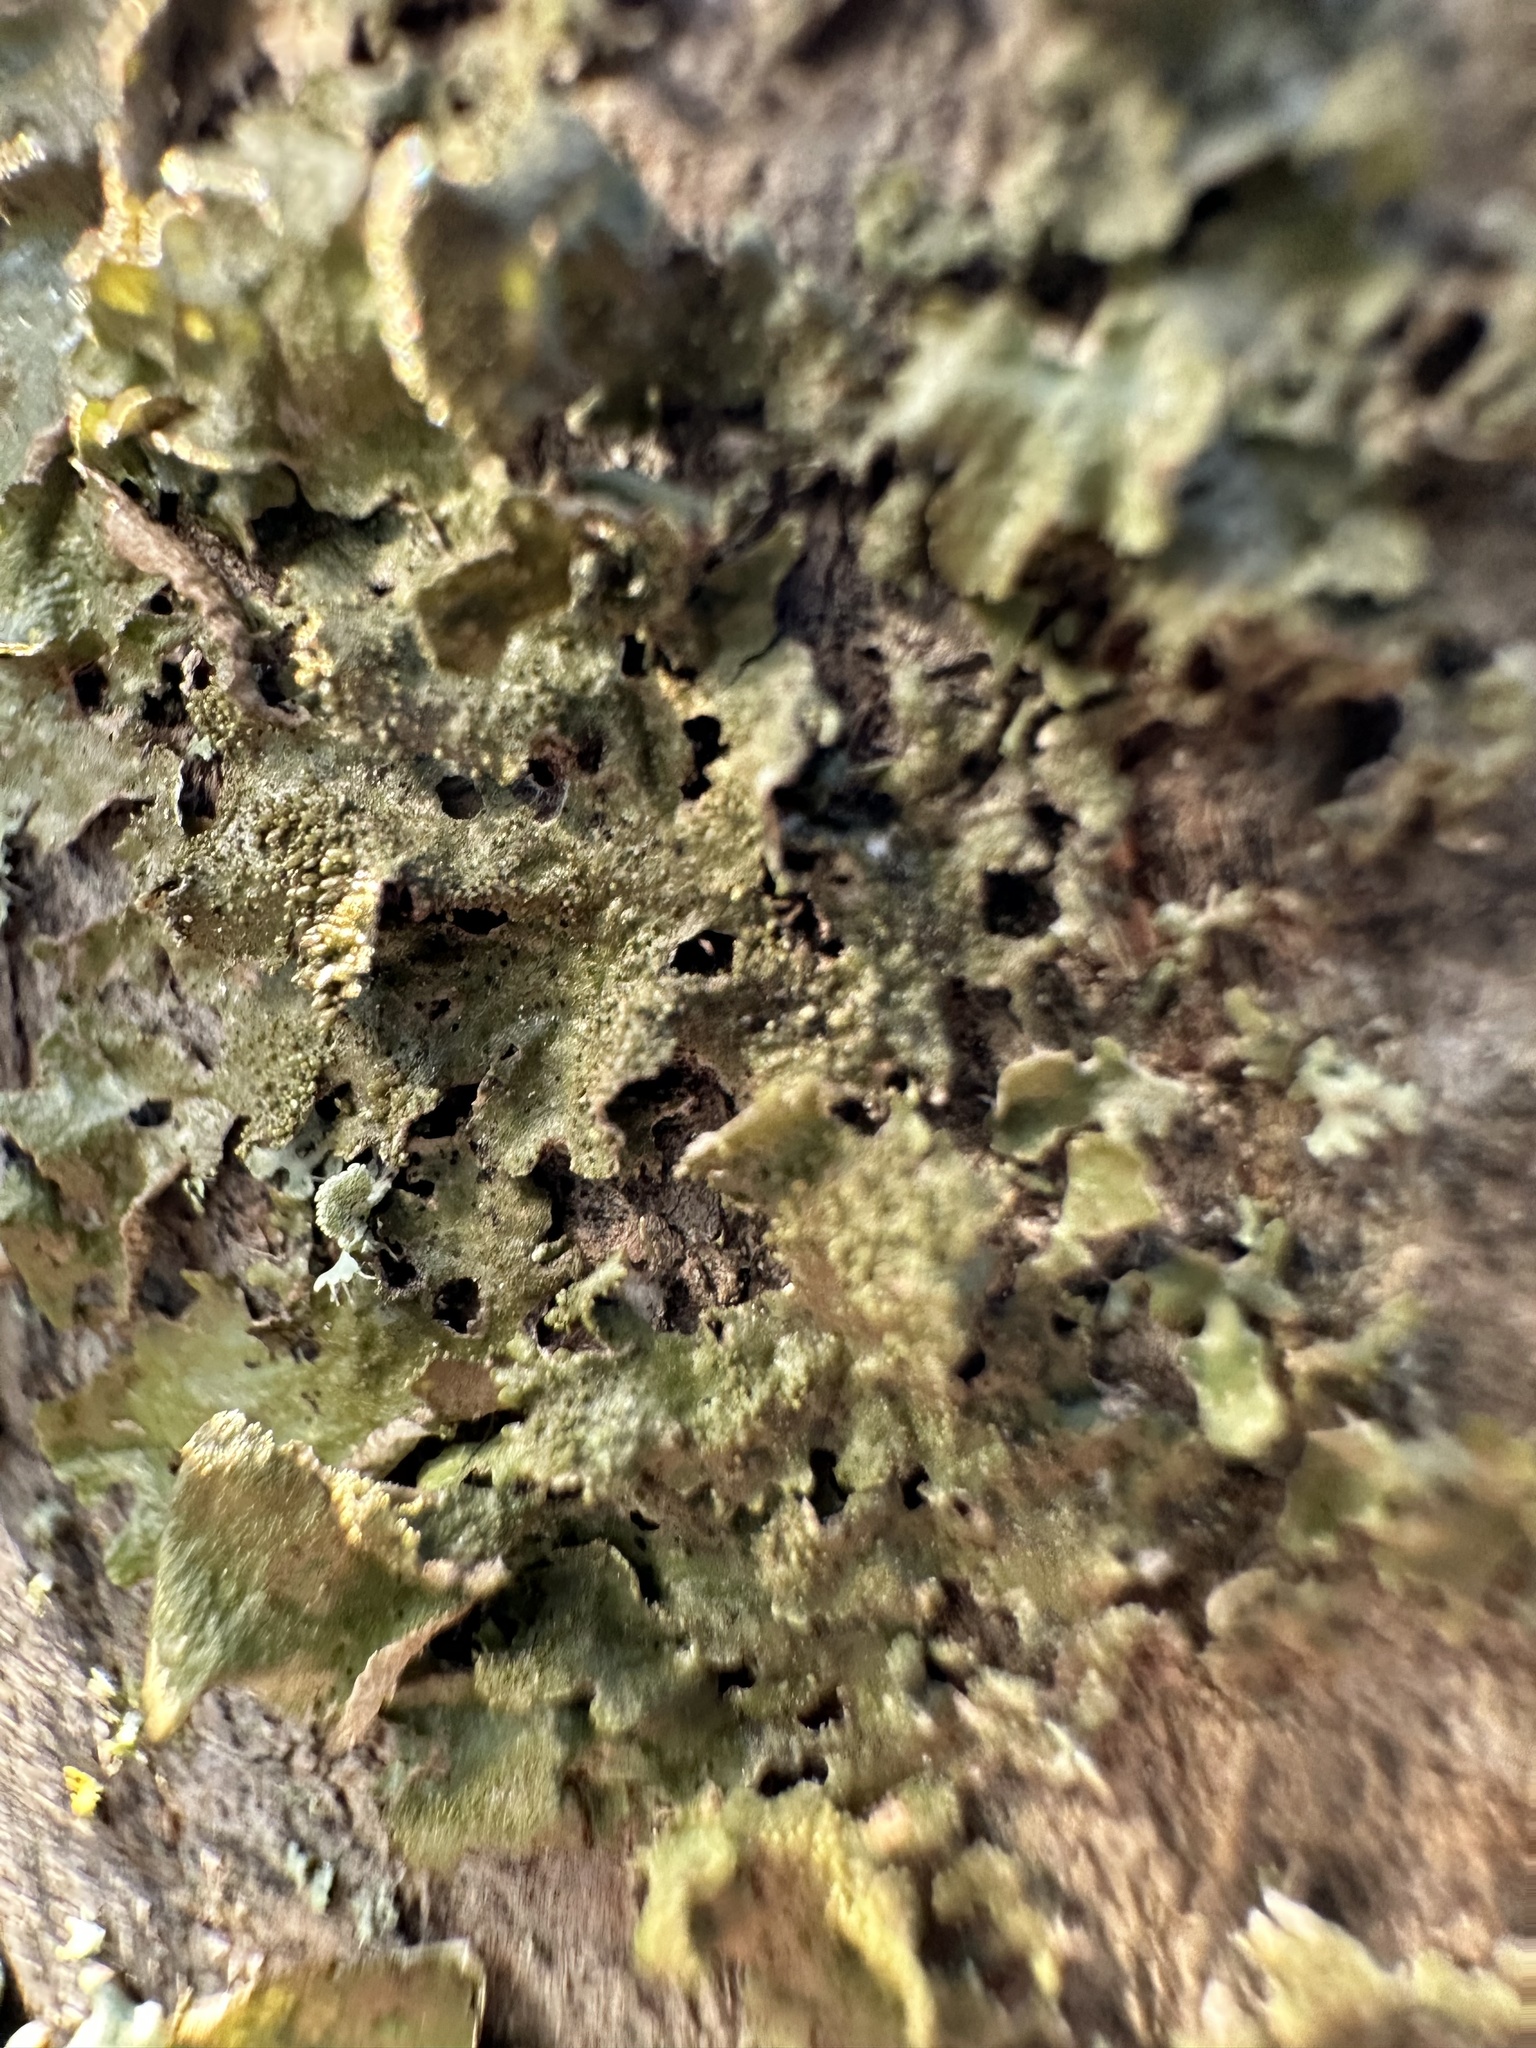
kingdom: Fungi
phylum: Ascomycota
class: Lecanoromycetes
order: Lecanorales
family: Parmeliaceae
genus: Melanohalea
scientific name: Melanohalea exasperatula
